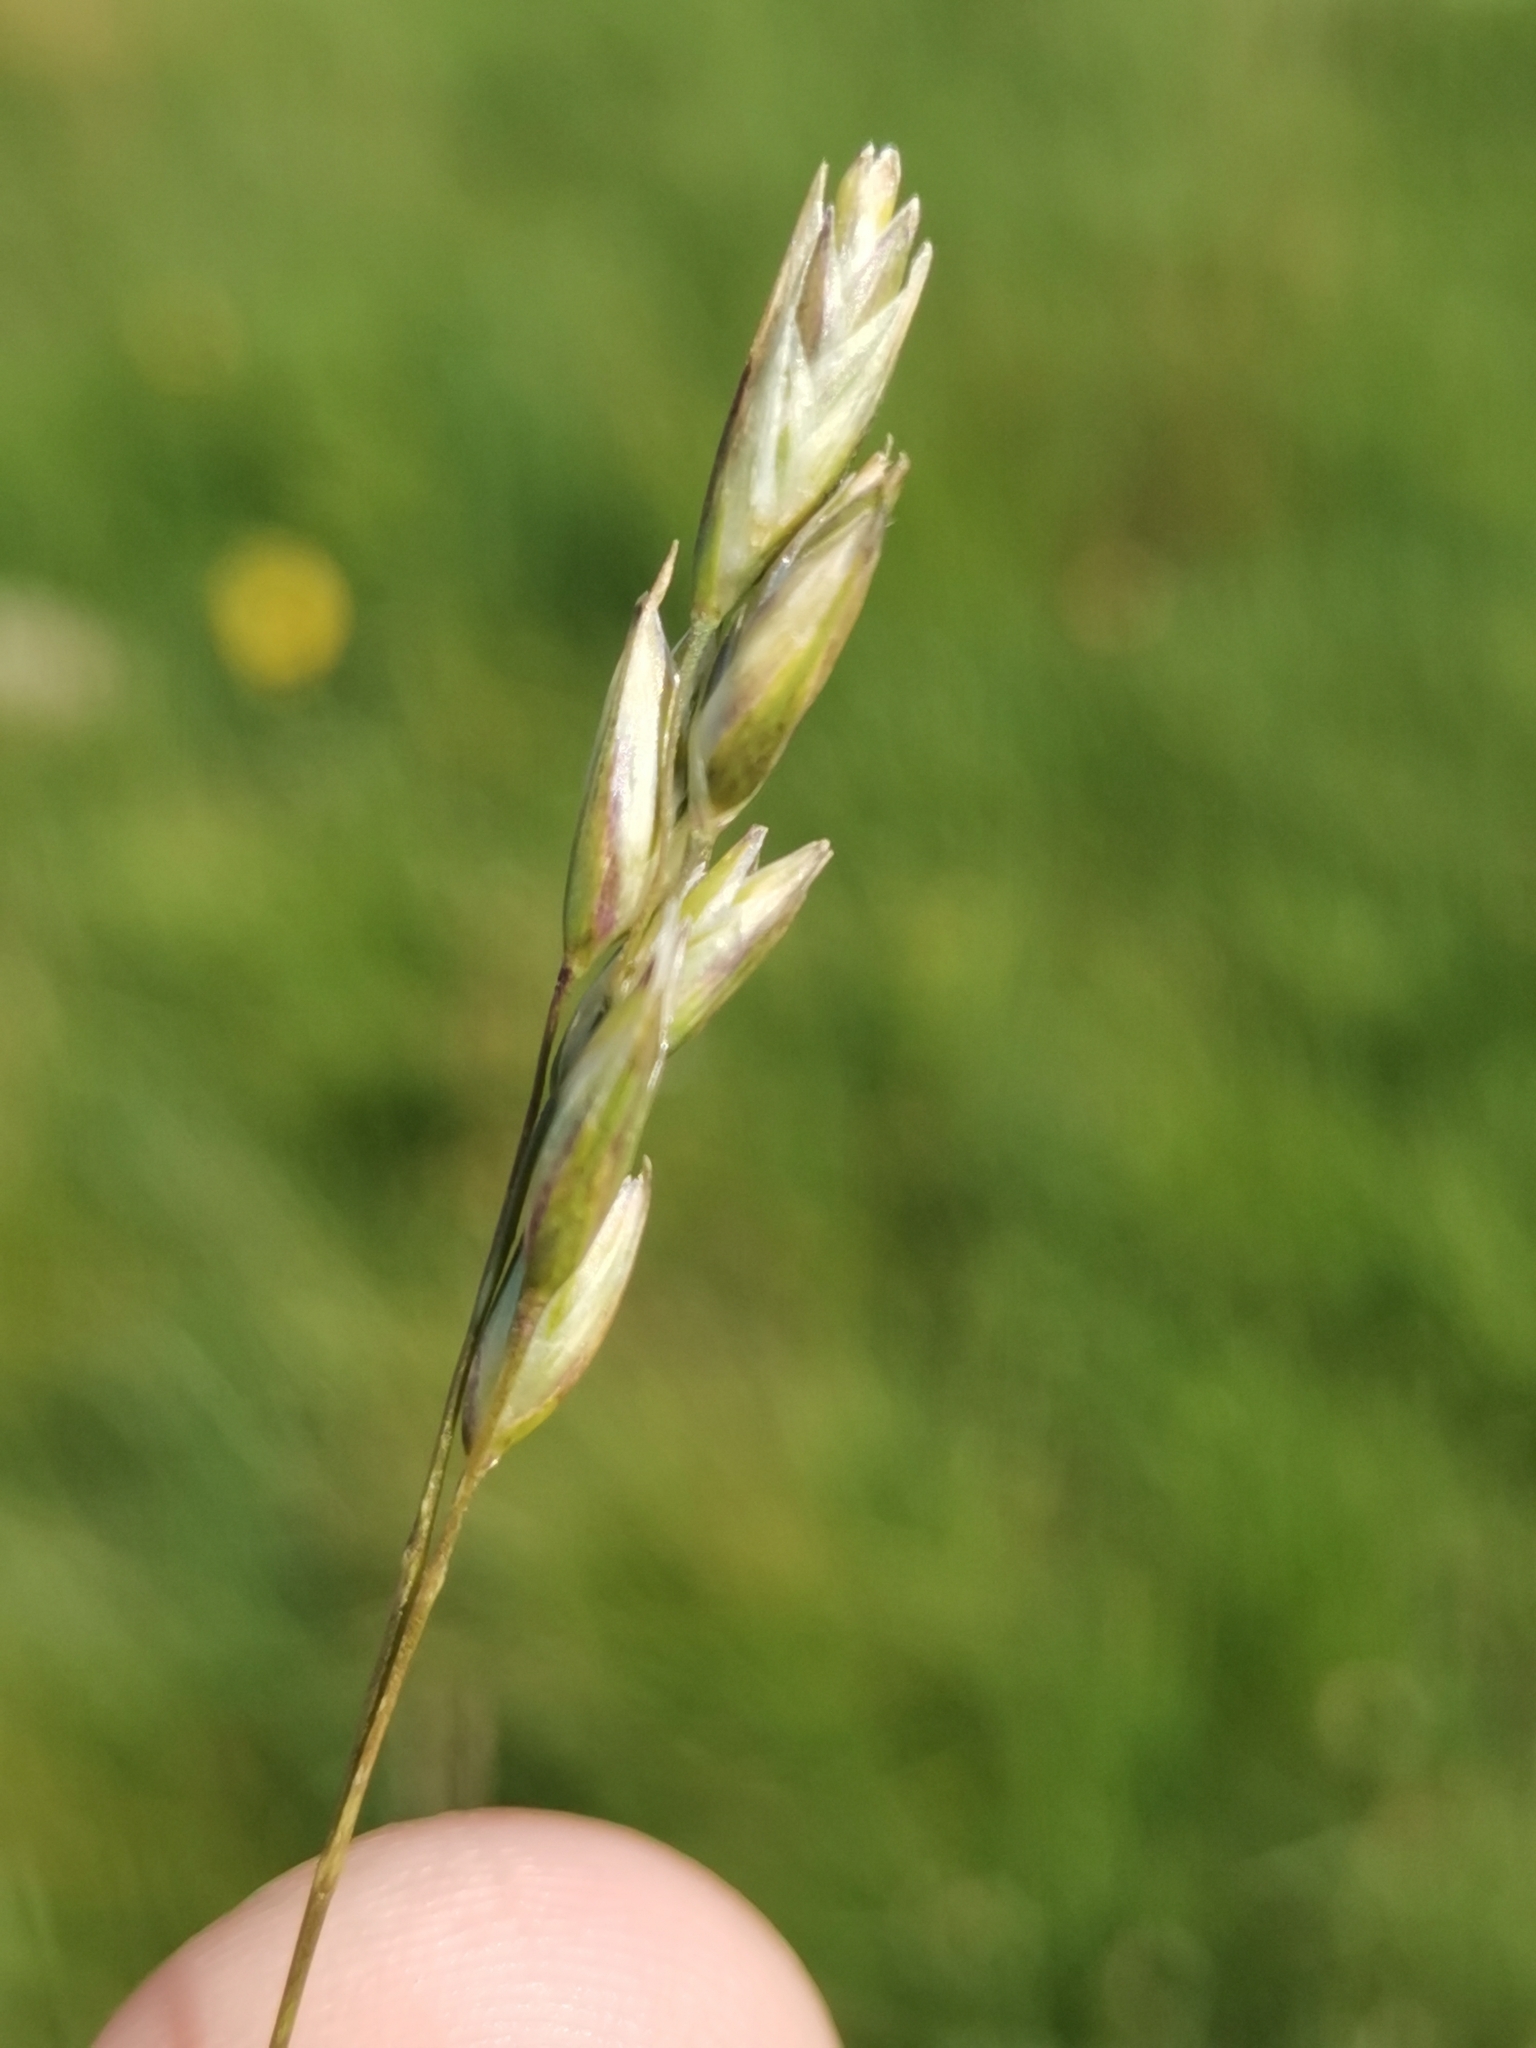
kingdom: Plantae
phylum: Tracheophyta
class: Liliopsida
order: Poales
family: Poaceae
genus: Danthonia
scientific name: Danthonia decumbens
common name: Common heathgrass
